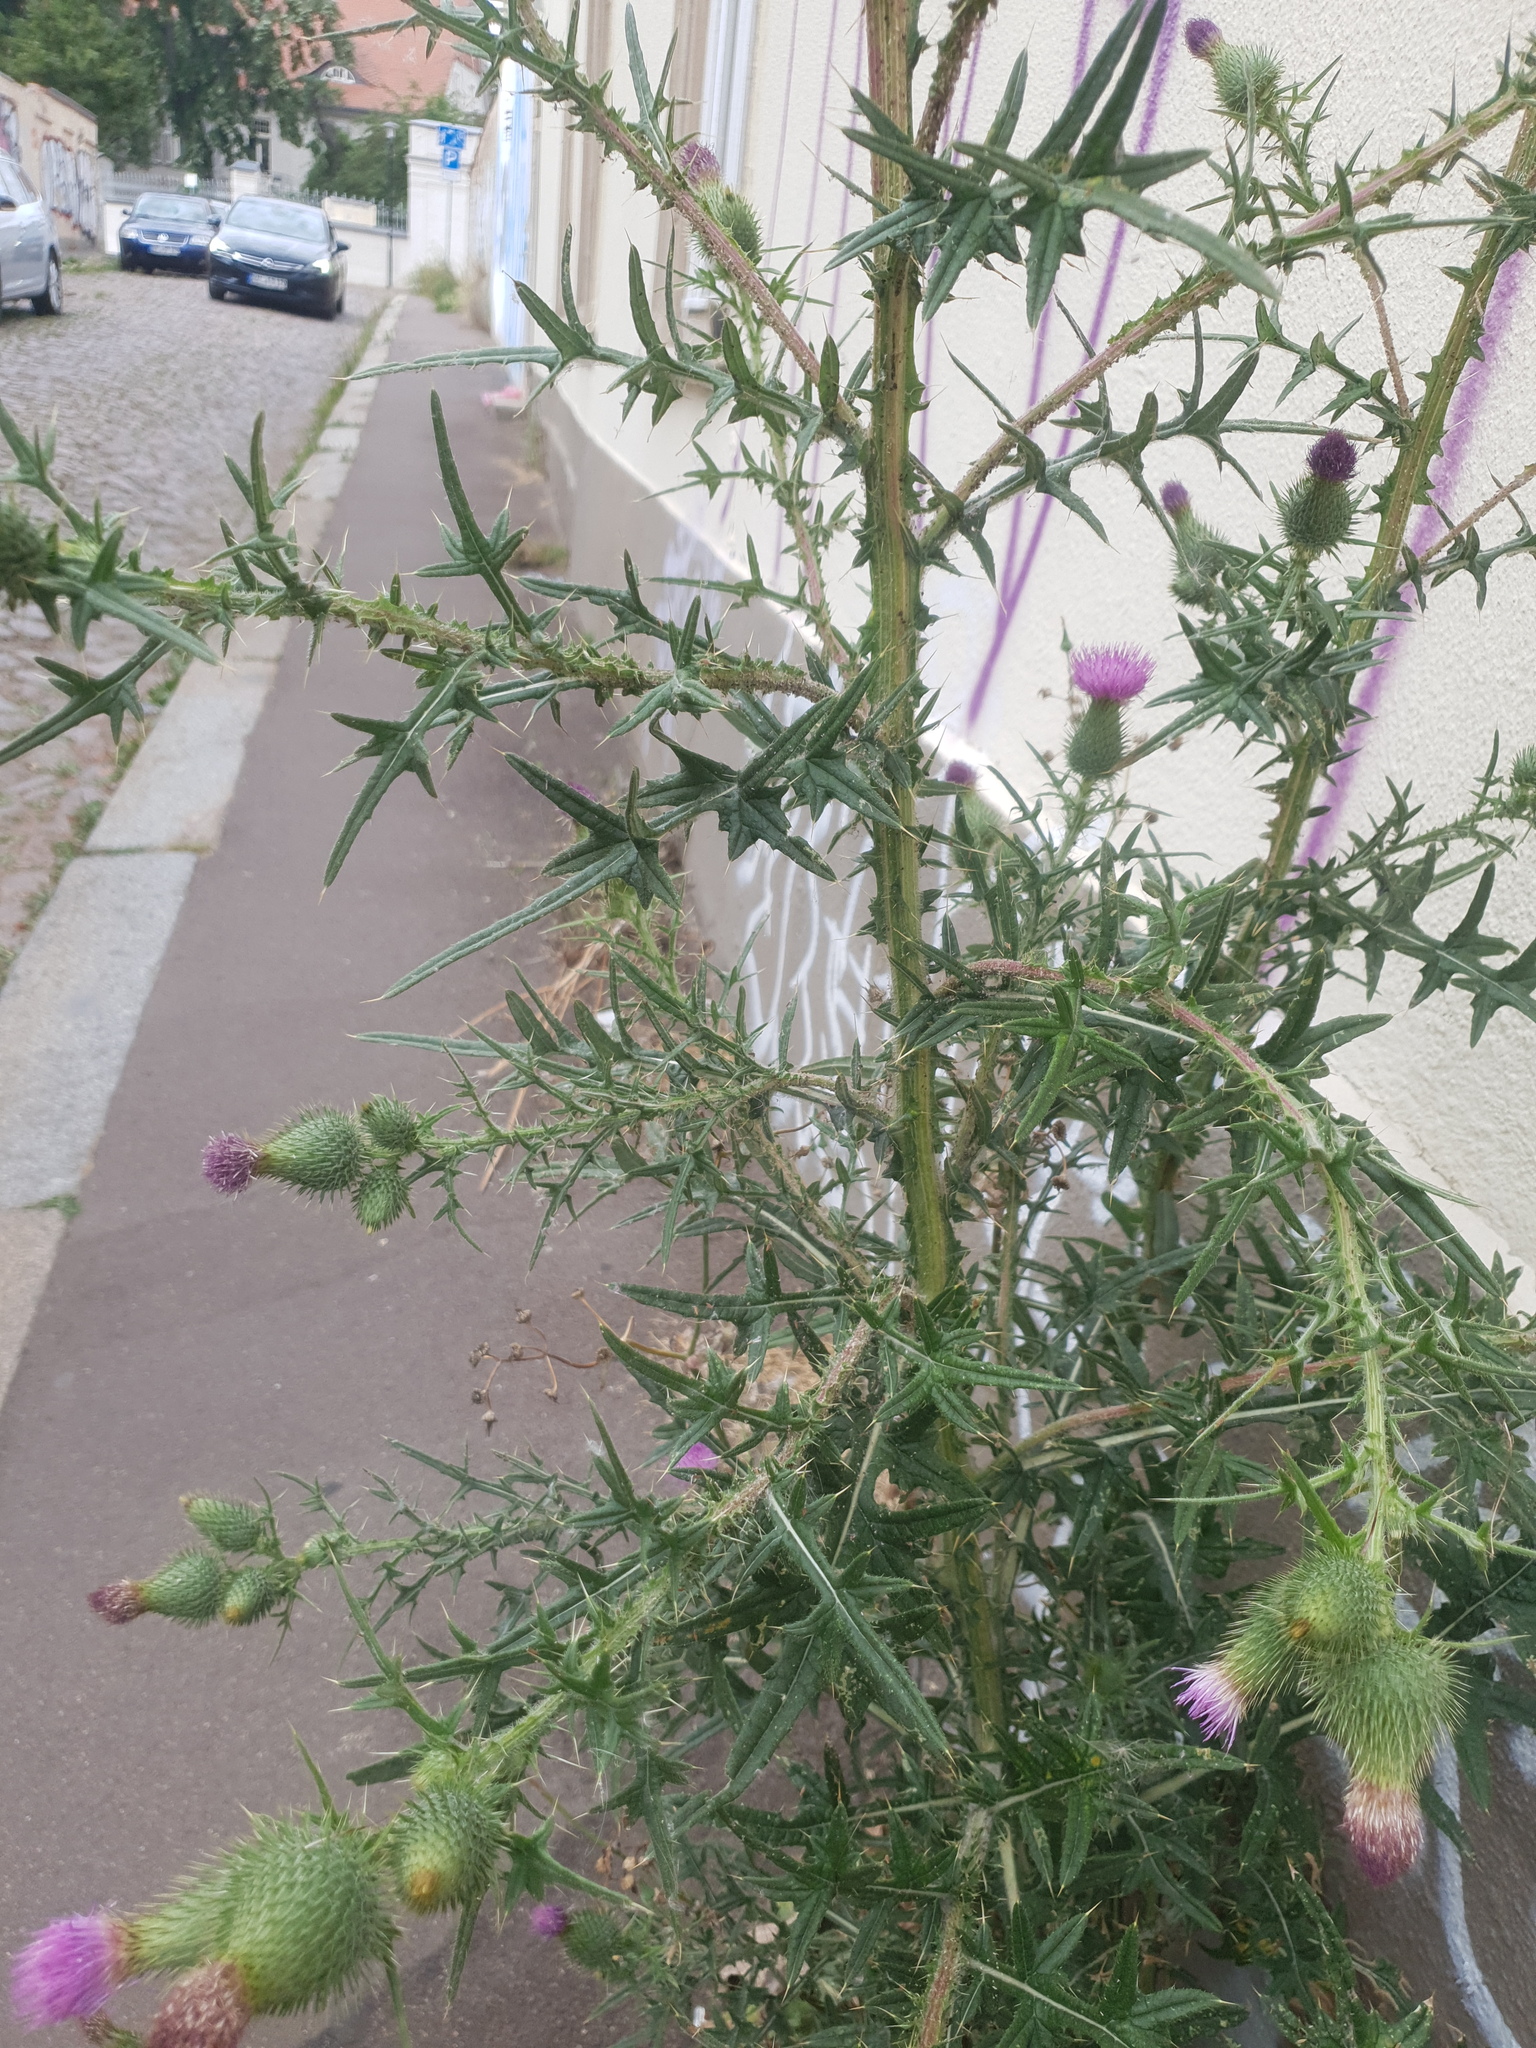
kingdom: Plantae
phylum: Tracheophyta
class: Magnoliopsida
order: Asterales
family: Asteraceae
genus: Cirsium
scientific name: Cirsium vulgare
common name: Bull thistle
